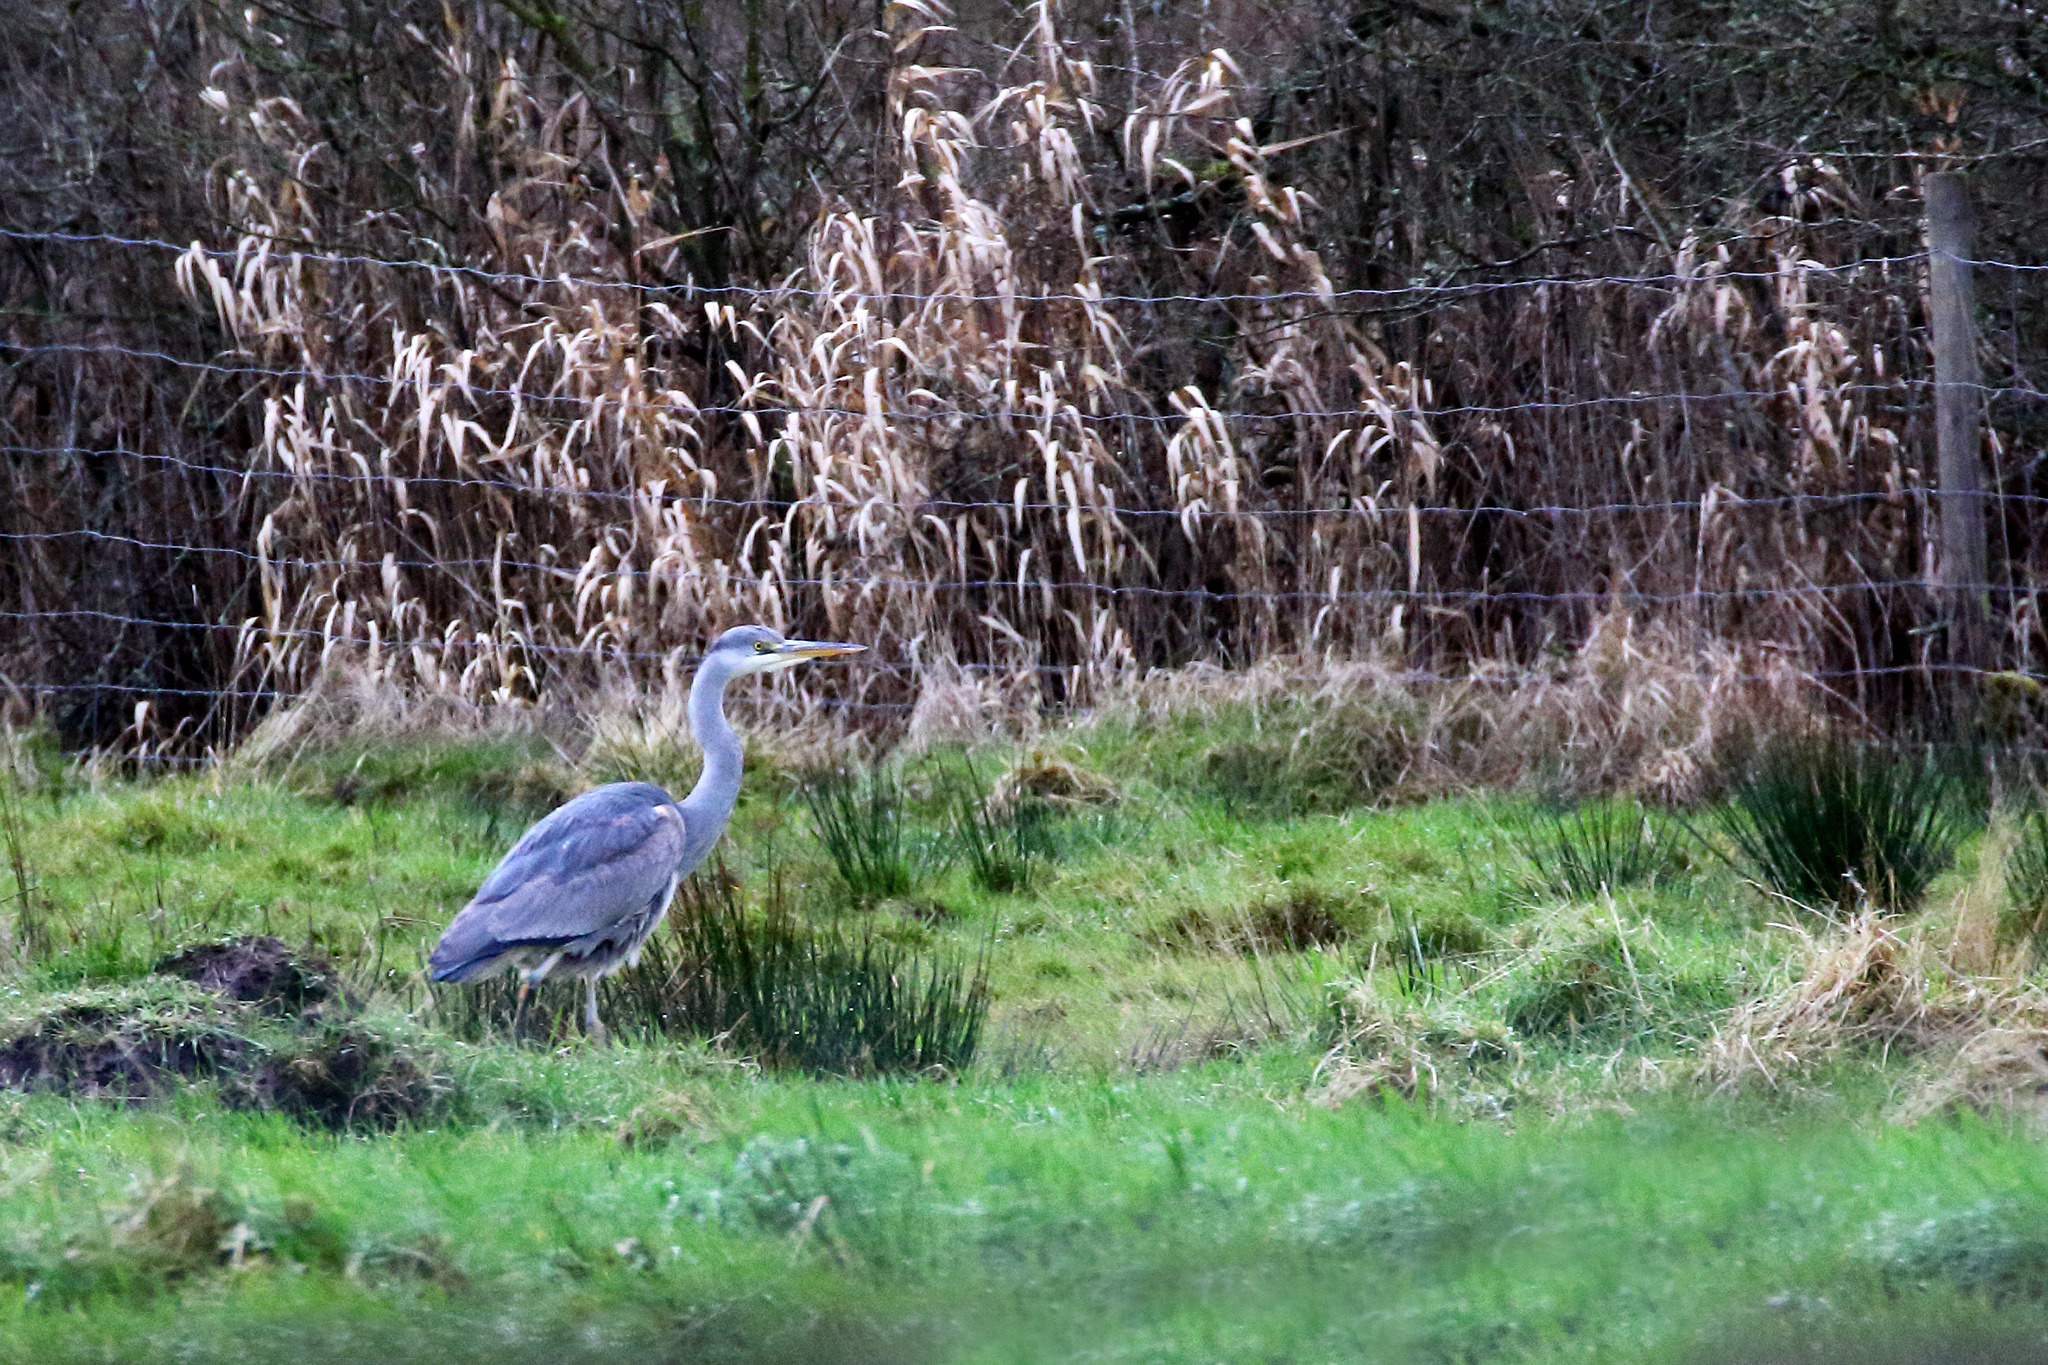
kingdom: Animalia
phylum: Chordata
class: Aves
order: Pelecaniformes
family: Ardeidae
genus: Ardea
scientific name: Ardea cinerea
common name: Grey heron
